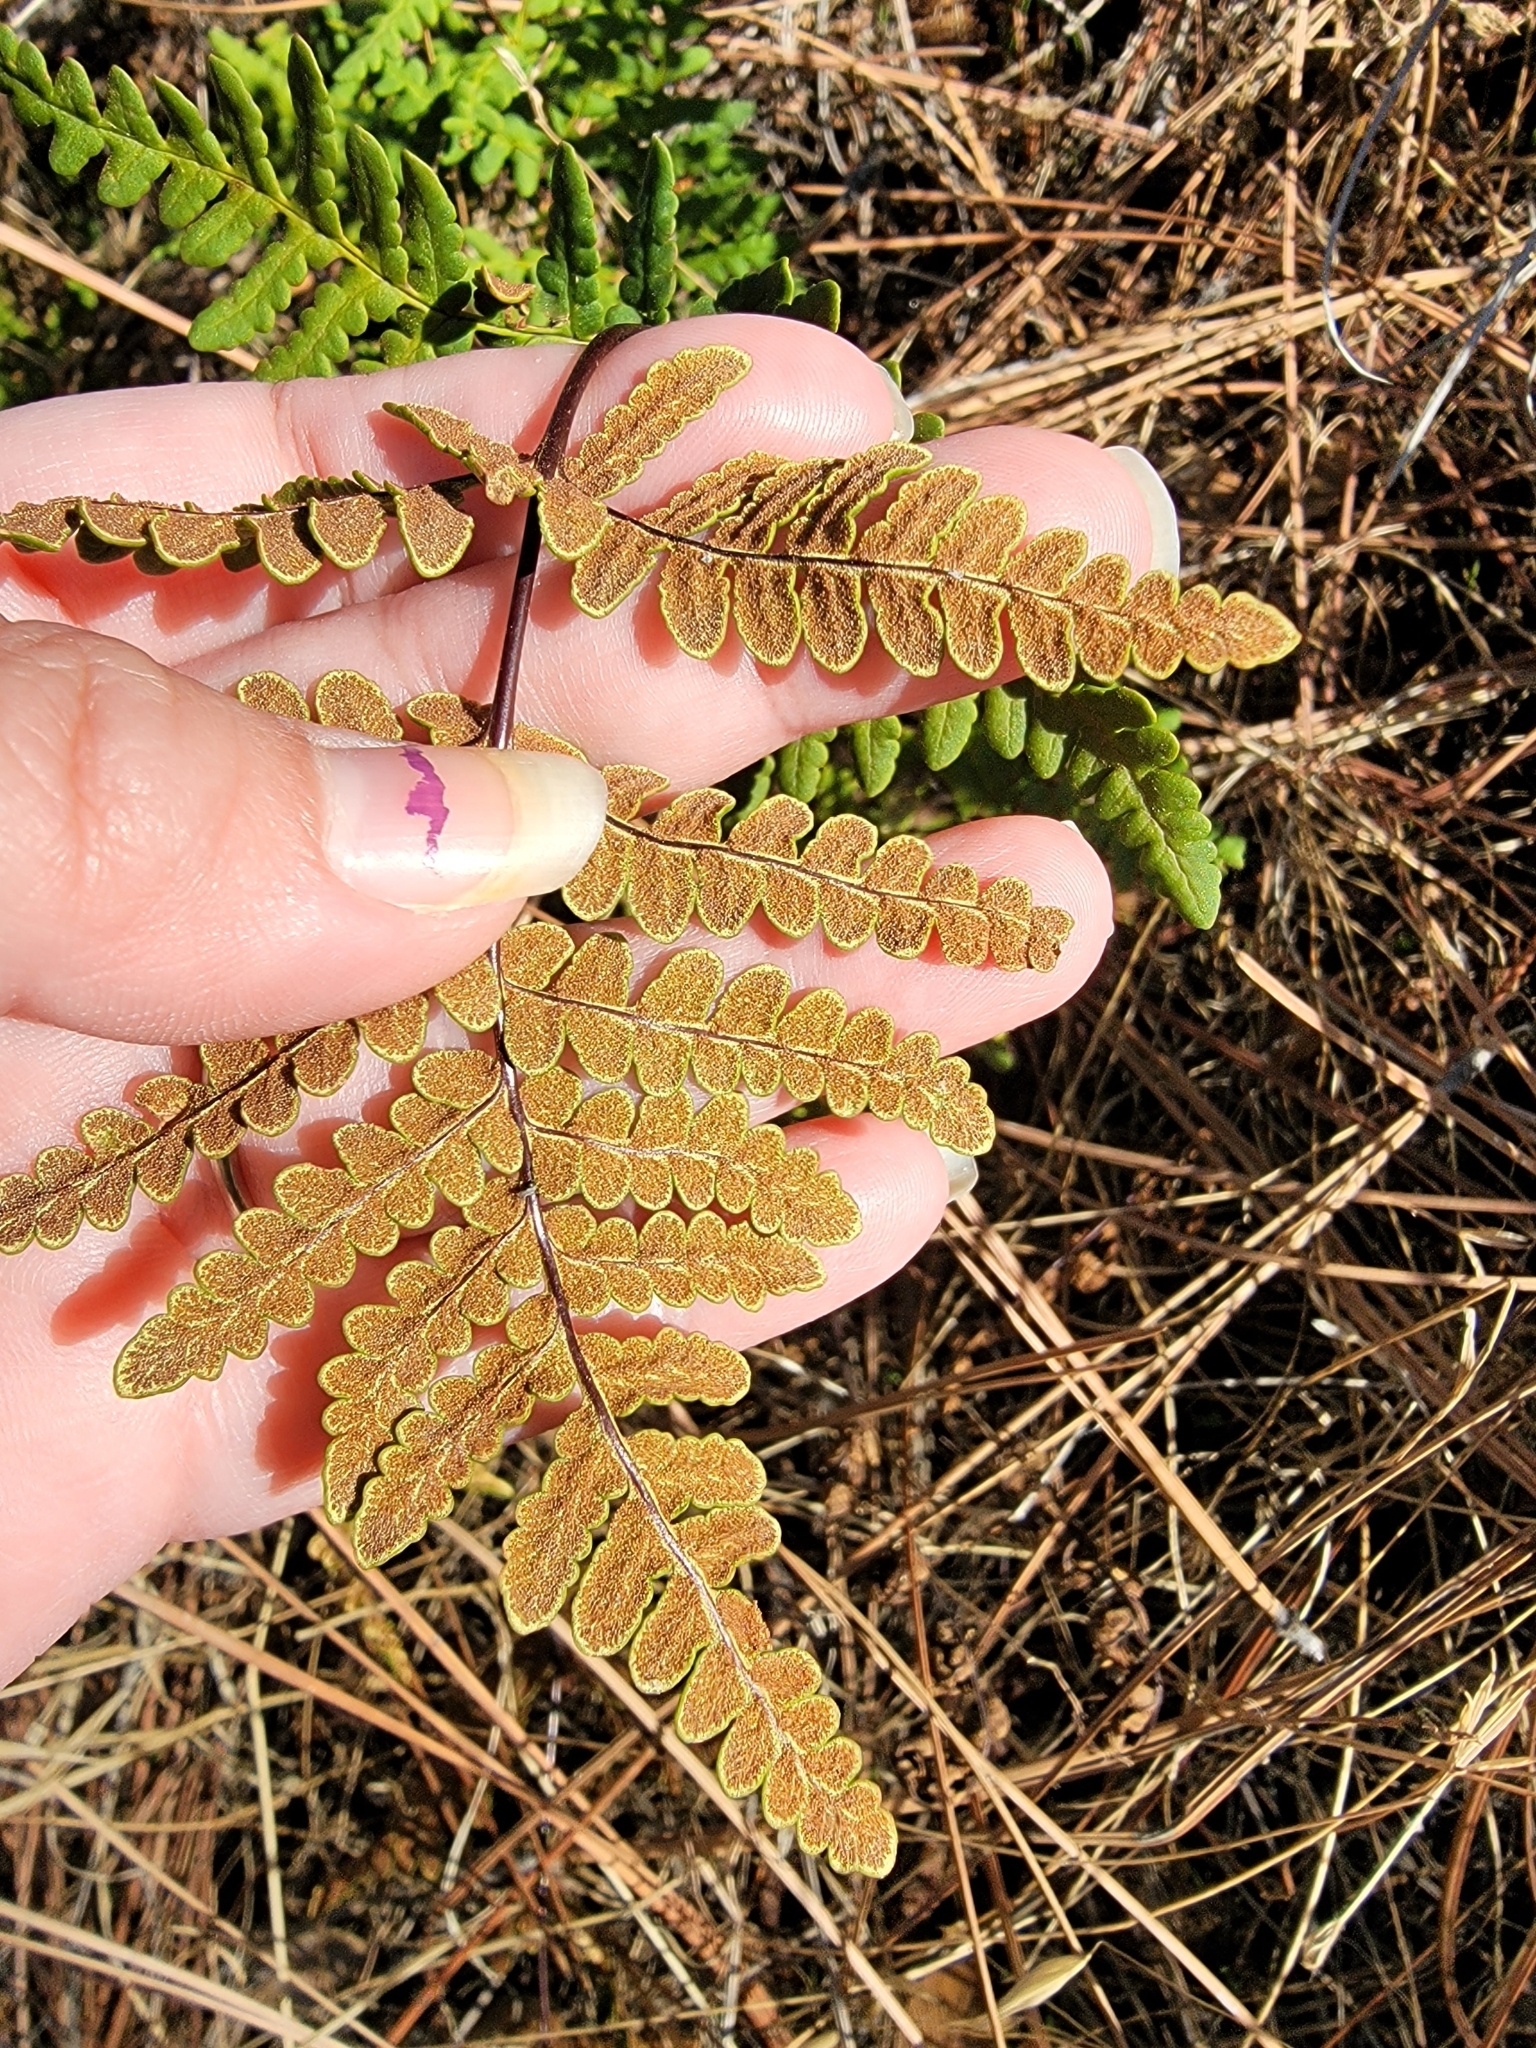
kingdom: Plantae
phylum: Tracheophyta
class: Polypodiopsida
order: Polypodiales
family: Pteridaceae
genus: Pentagramma
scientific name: Pentagramma triangularis
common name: Gold fern
